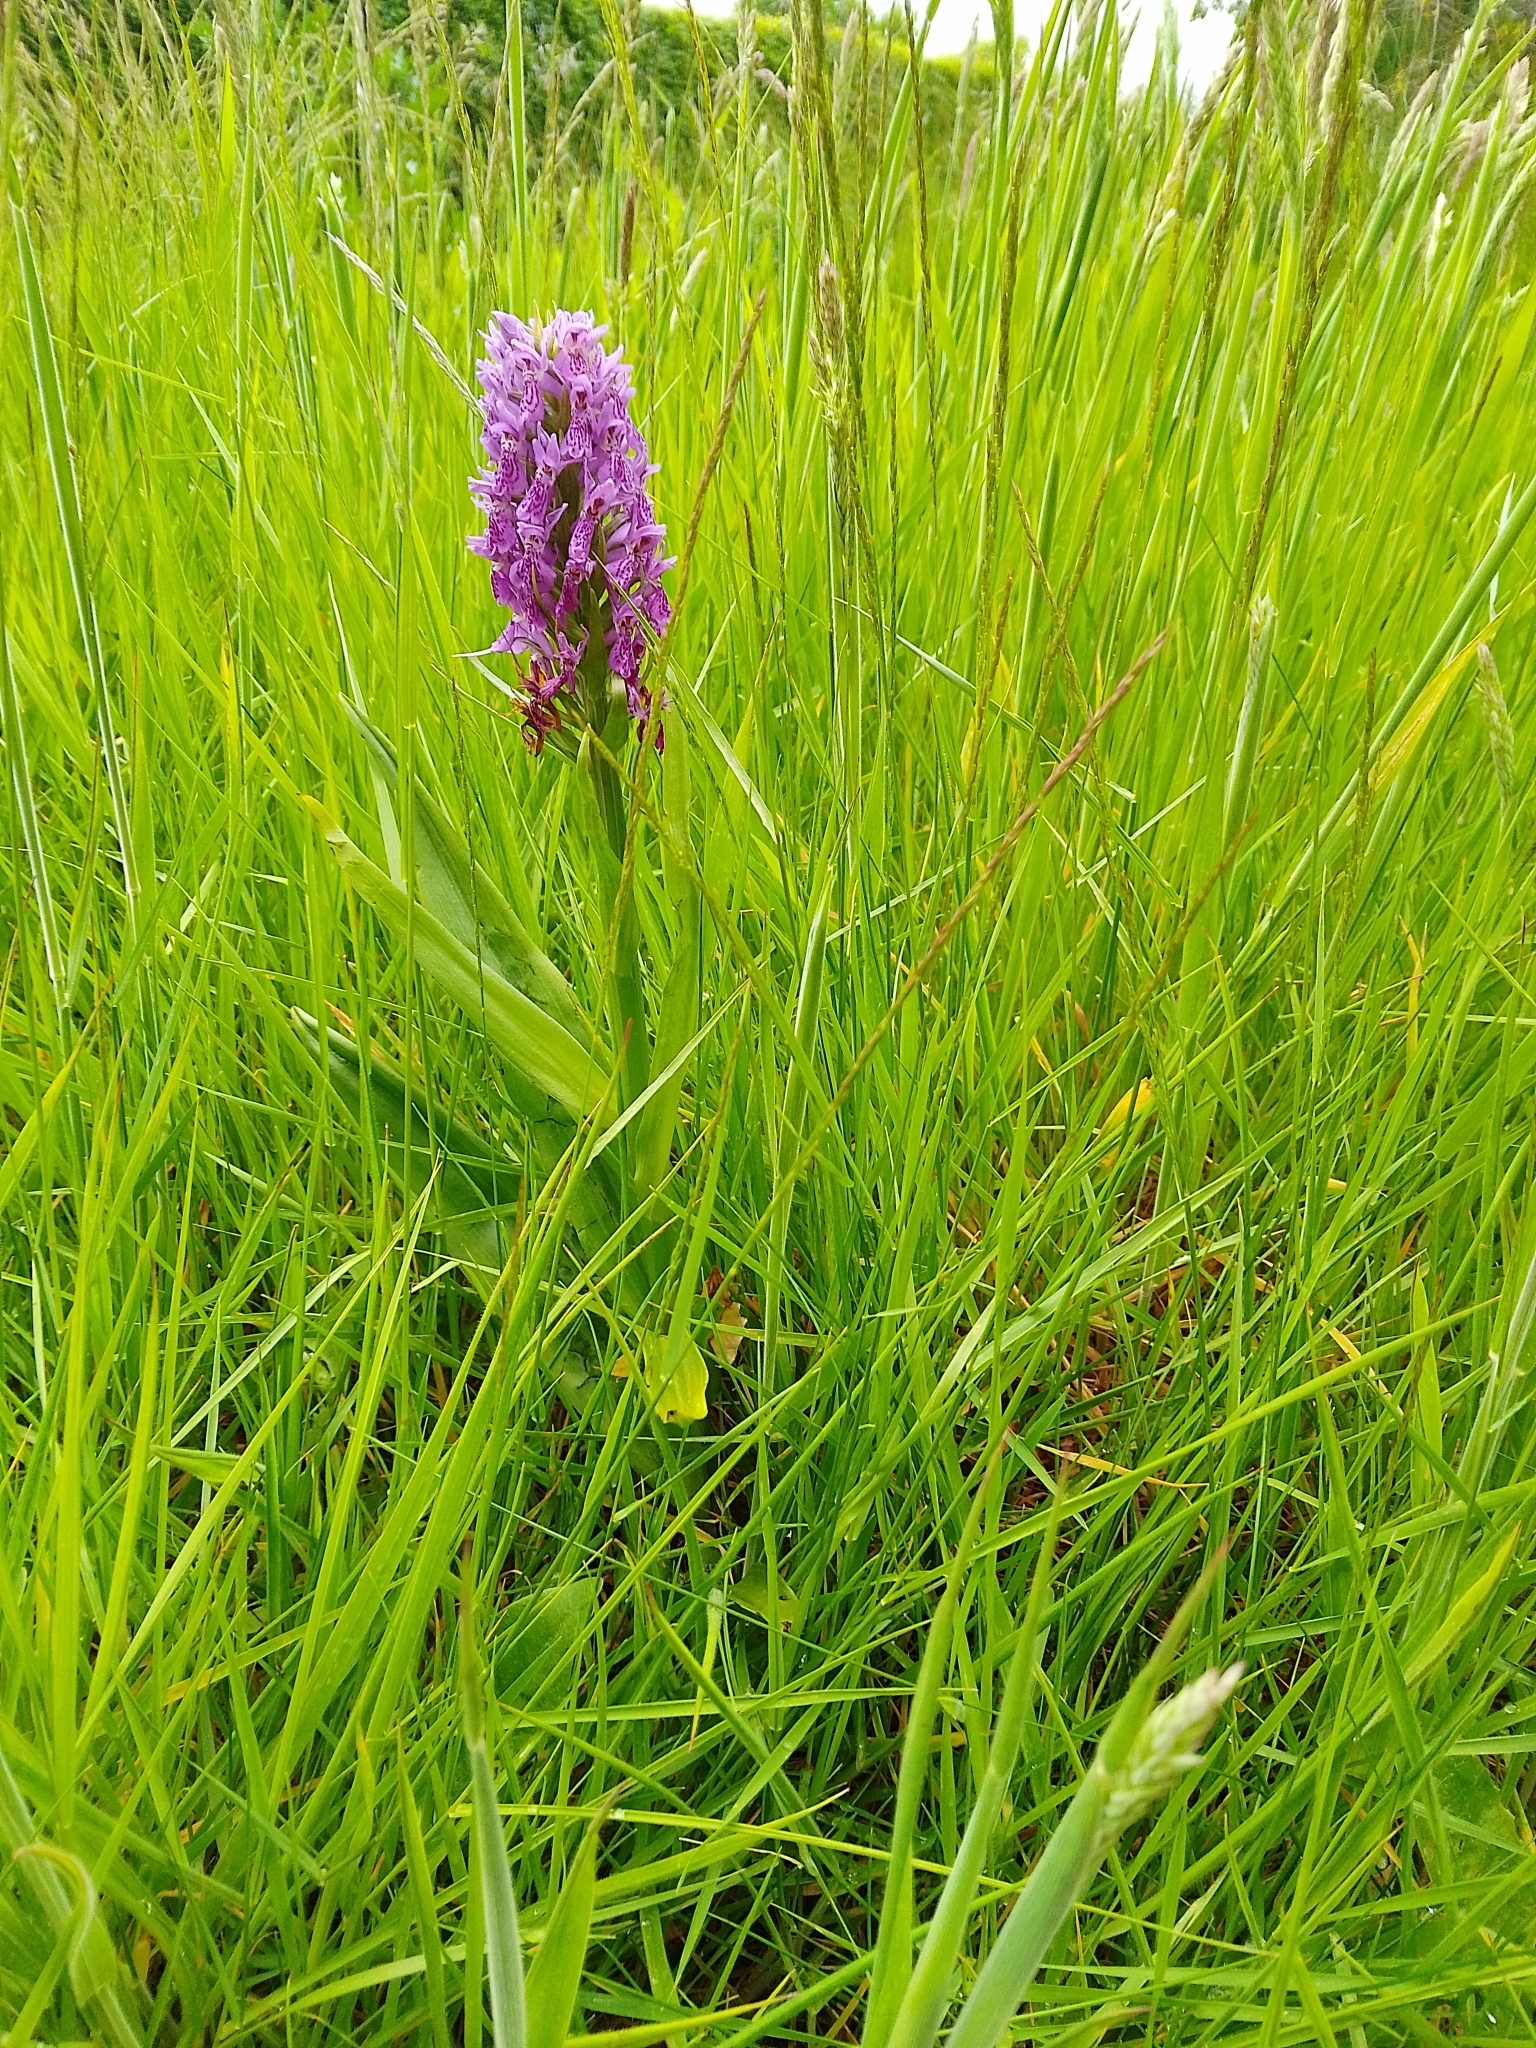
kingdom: Plantae
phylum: Tracheophyta
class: Liliopsida
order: Asparagales
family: Orchidaceae
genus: Dactylorhiza
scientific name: Dactylorhiza majalis
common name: Marsh orchid
